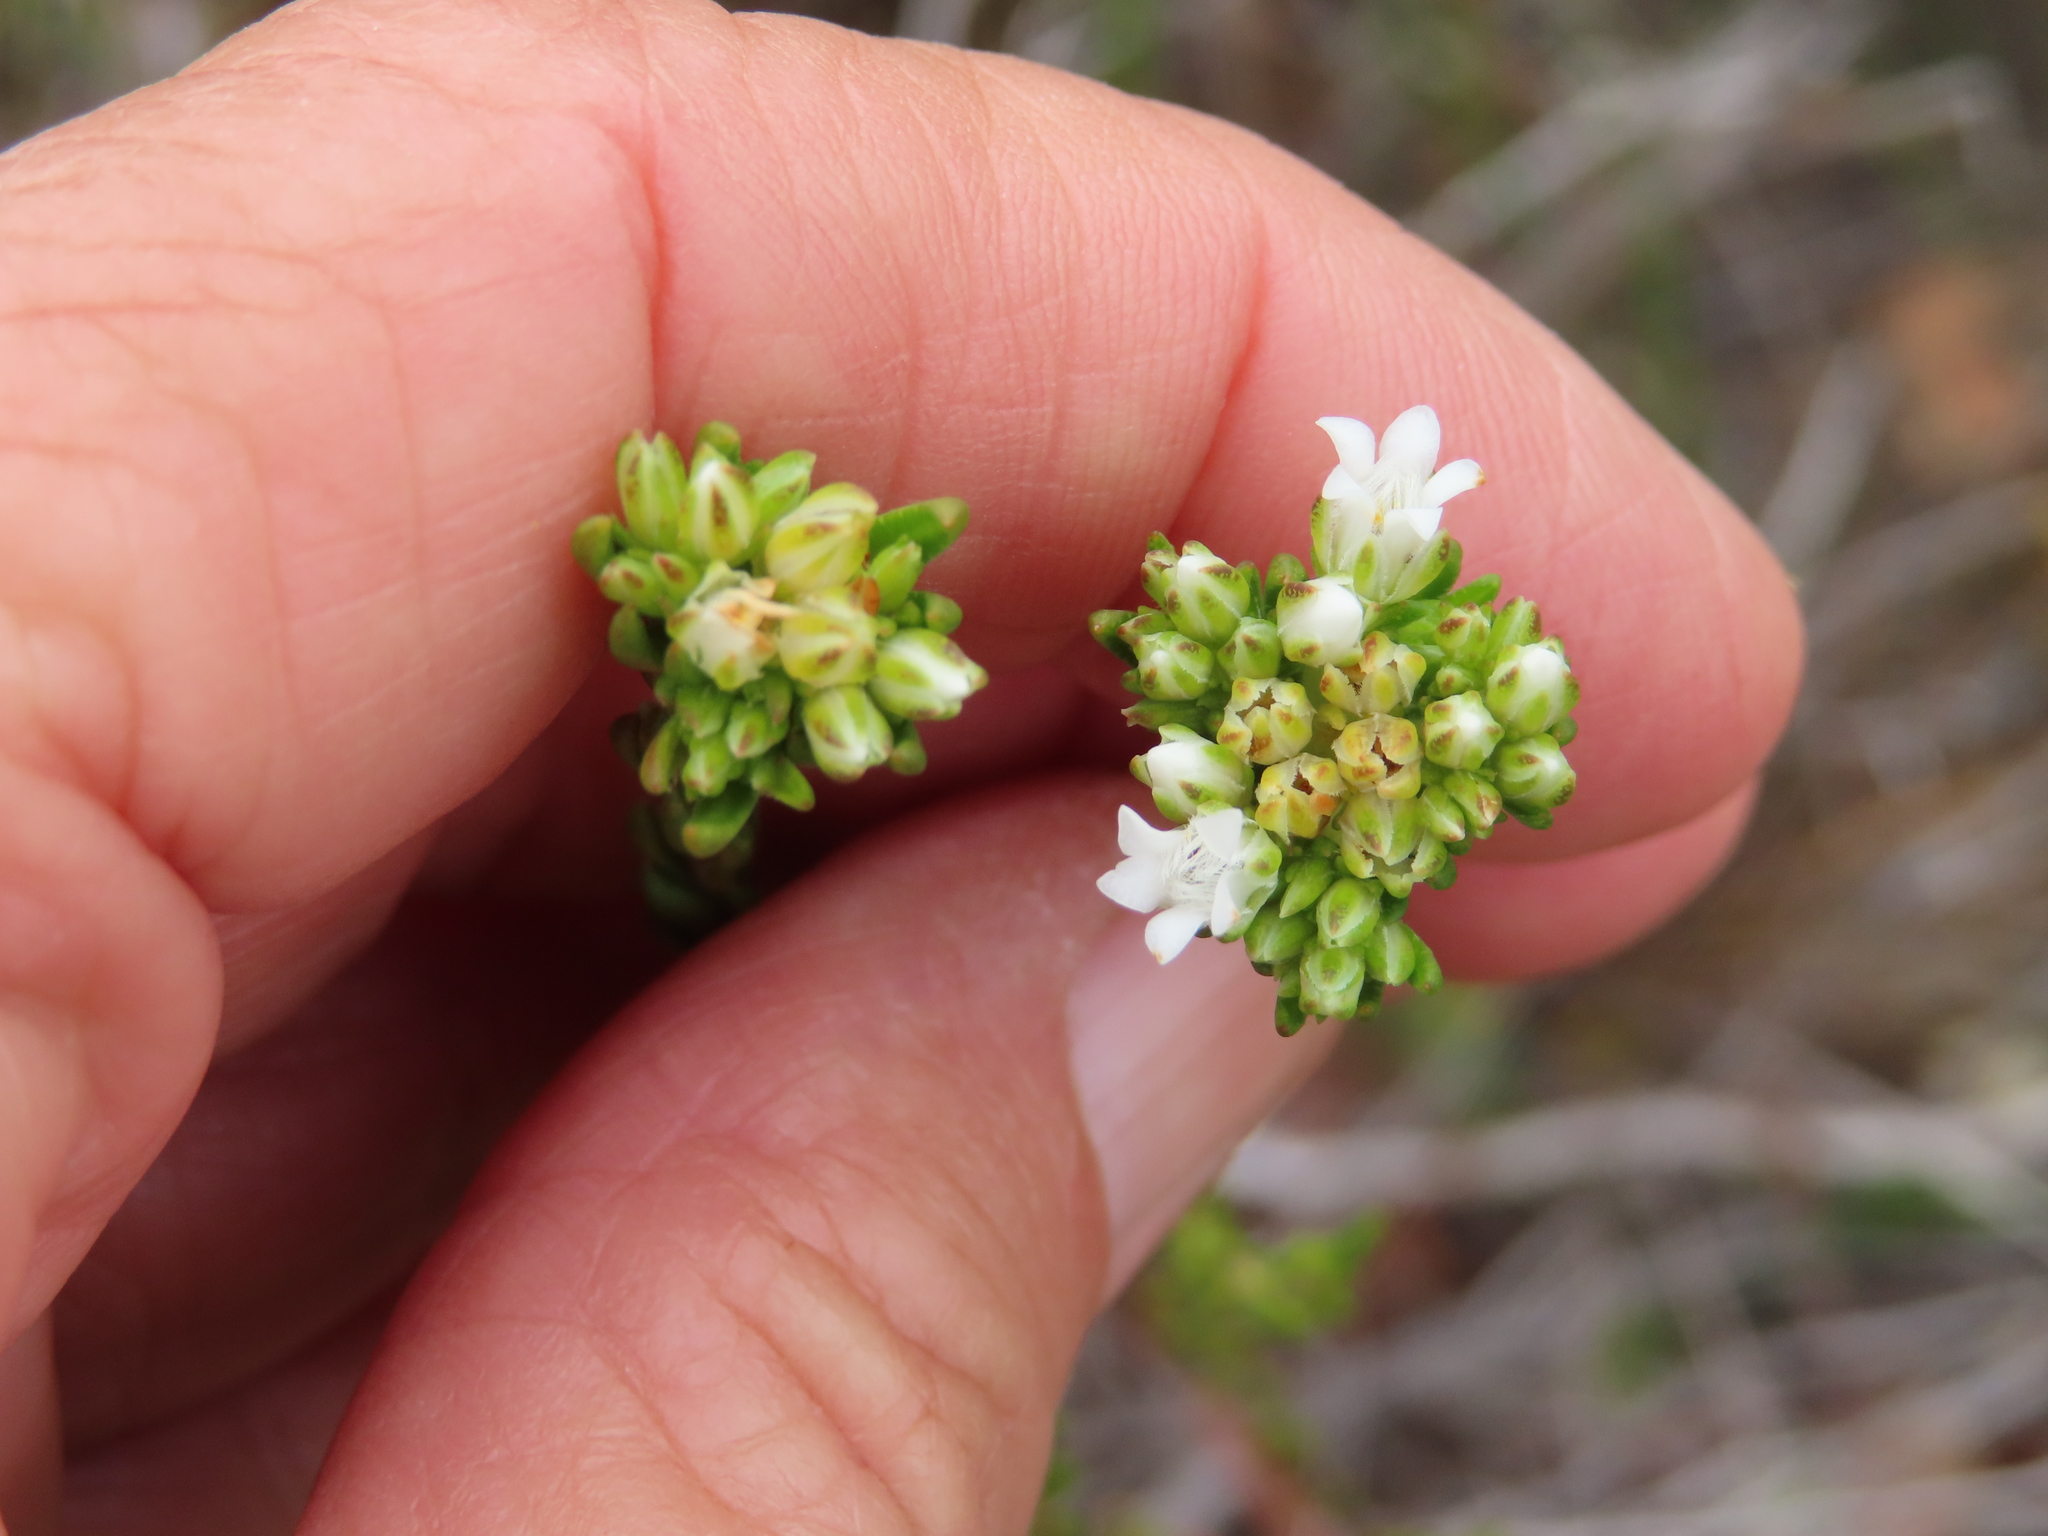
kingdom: Plantae
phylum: Tracheophyta
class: Magnoliopsida
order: Sapindales
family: Rutaceae
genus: Euchaetis
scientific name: Euchaetis diosmoides
